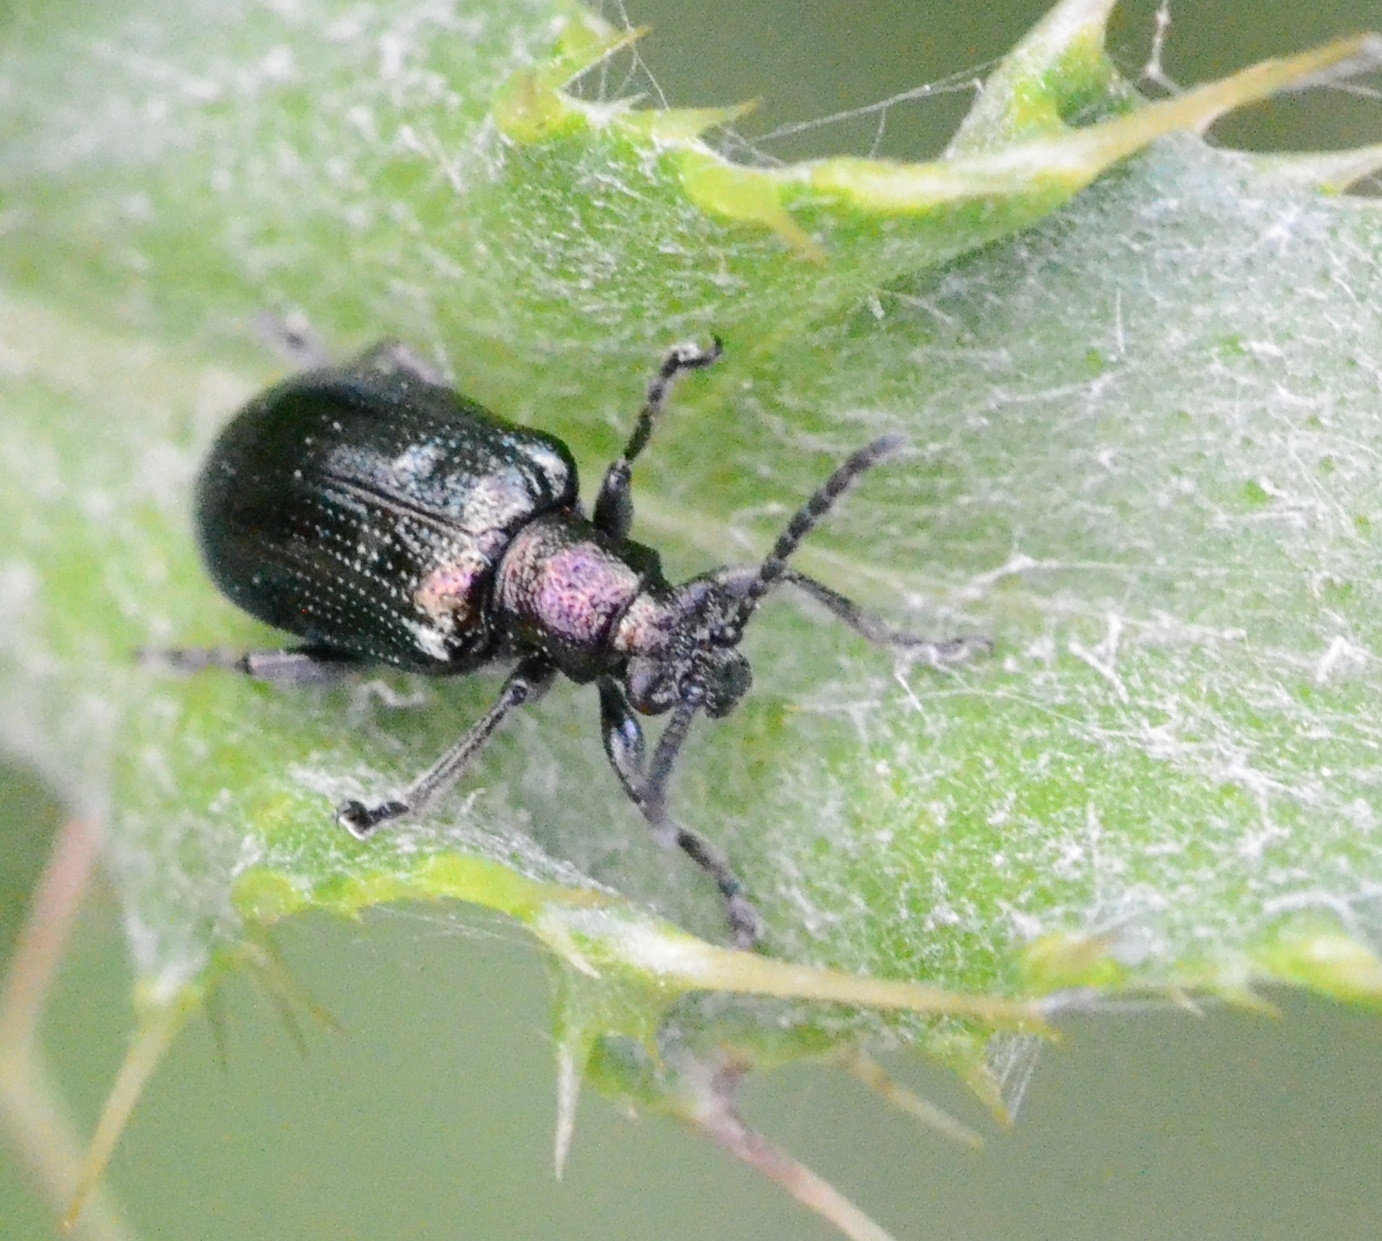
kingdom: Animalia
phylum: Arthropoda
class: Insecta
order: Coleoptera
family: Chrysomelidae
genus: Lema
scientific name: Lema cyanella
